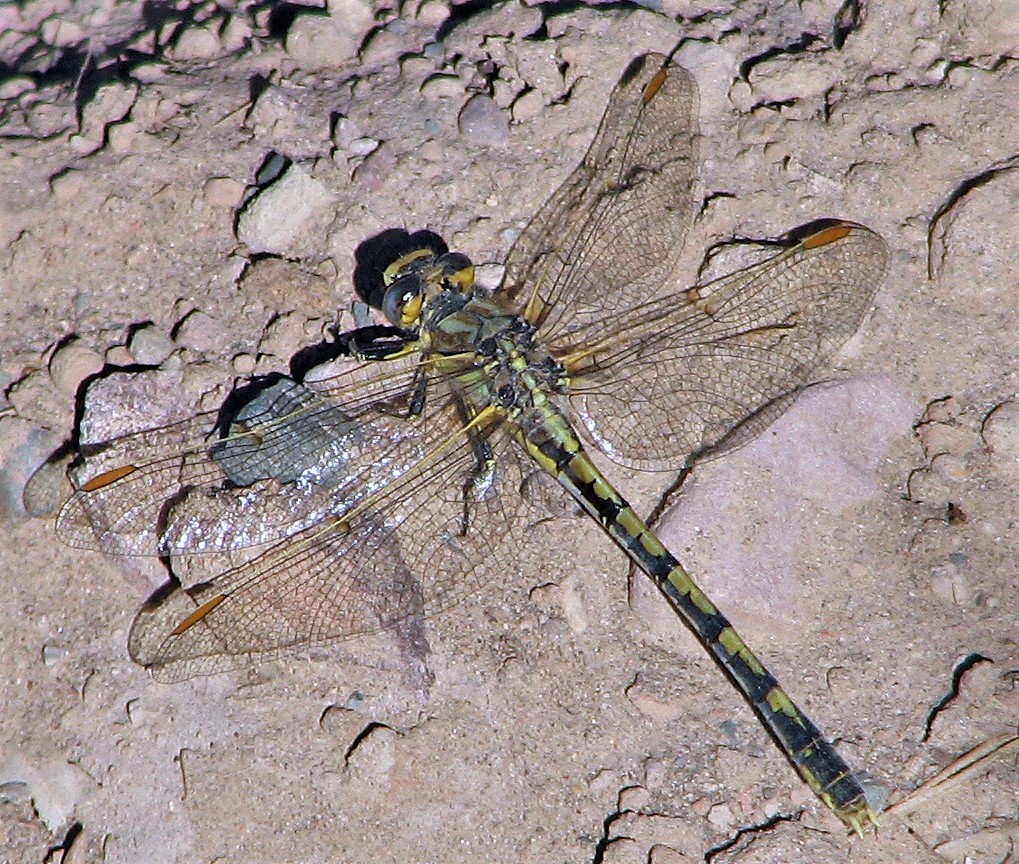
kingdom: Animalia
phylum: Arthropoda
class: Insecta
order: Odonata
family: Gomphidae
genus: Progomphus
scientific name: Progomphus joergenseni
